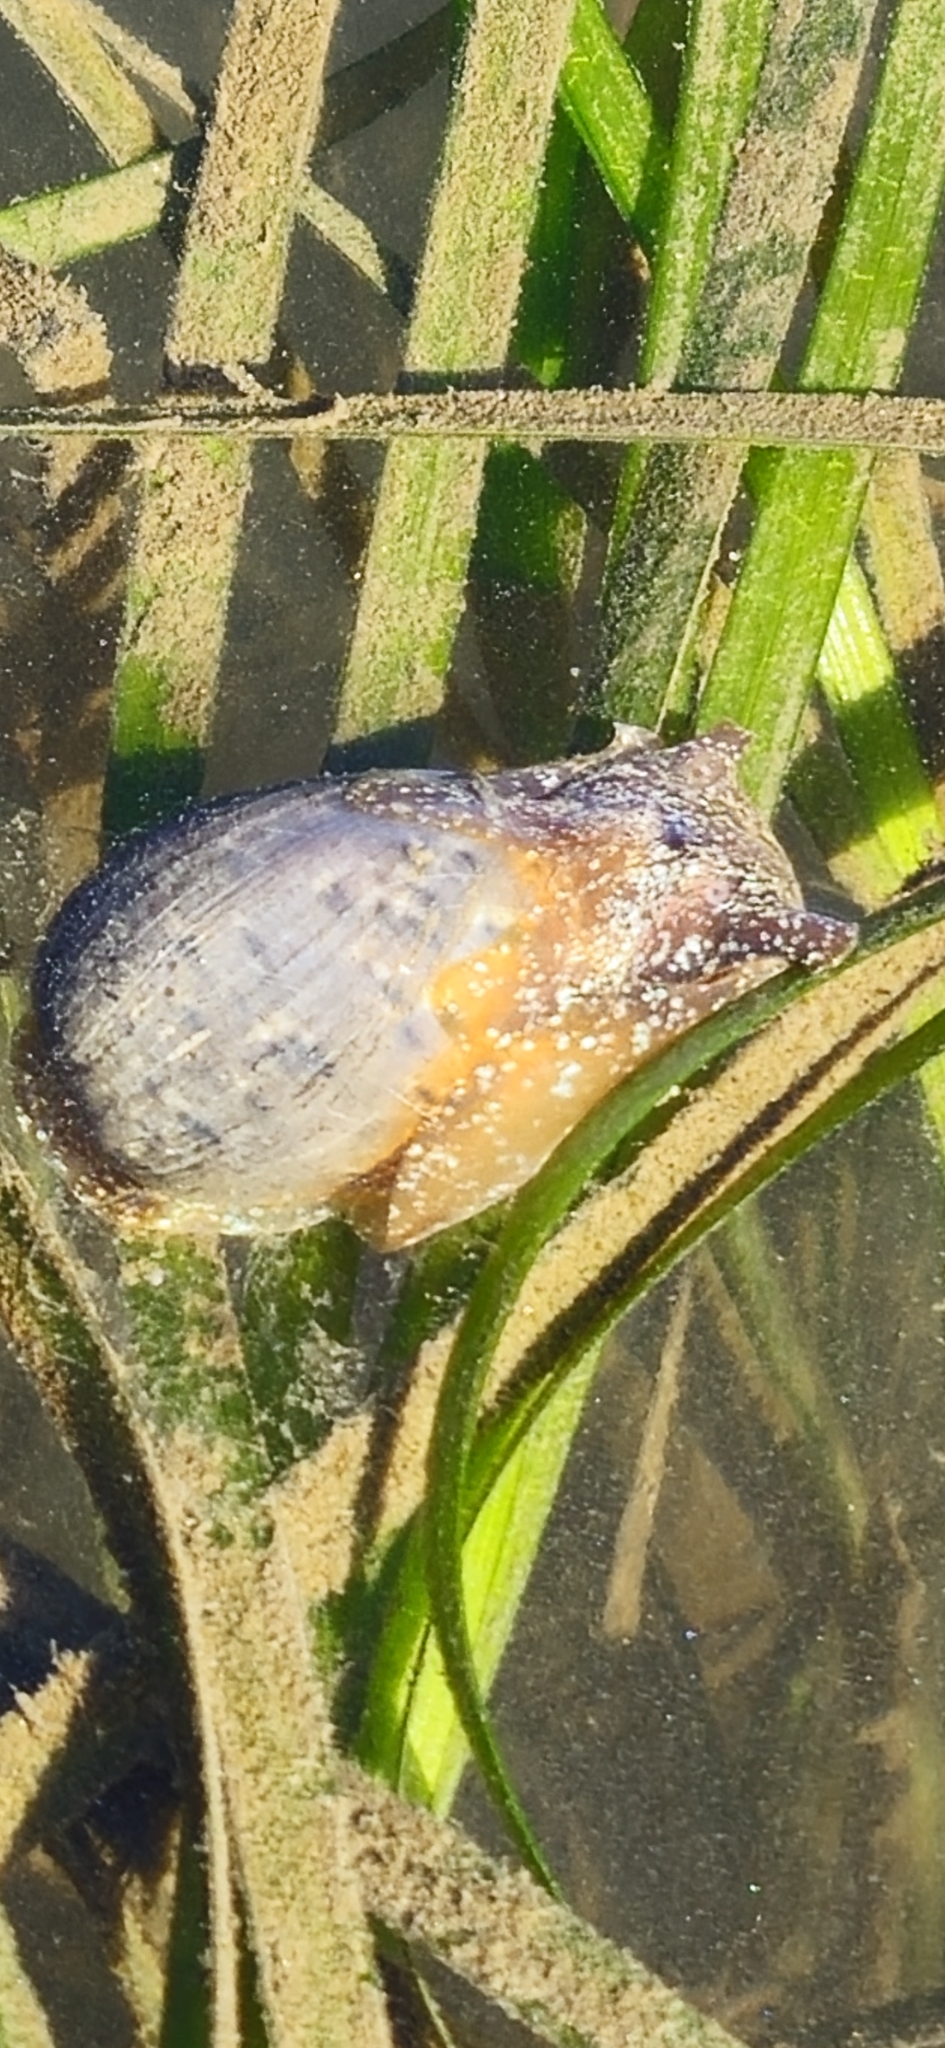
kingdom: Animalia
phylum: Mollusca
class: Gastropoda
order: Cephalaspidea
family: Bullidae
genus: Bulla
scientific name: Bulla gouldiana
